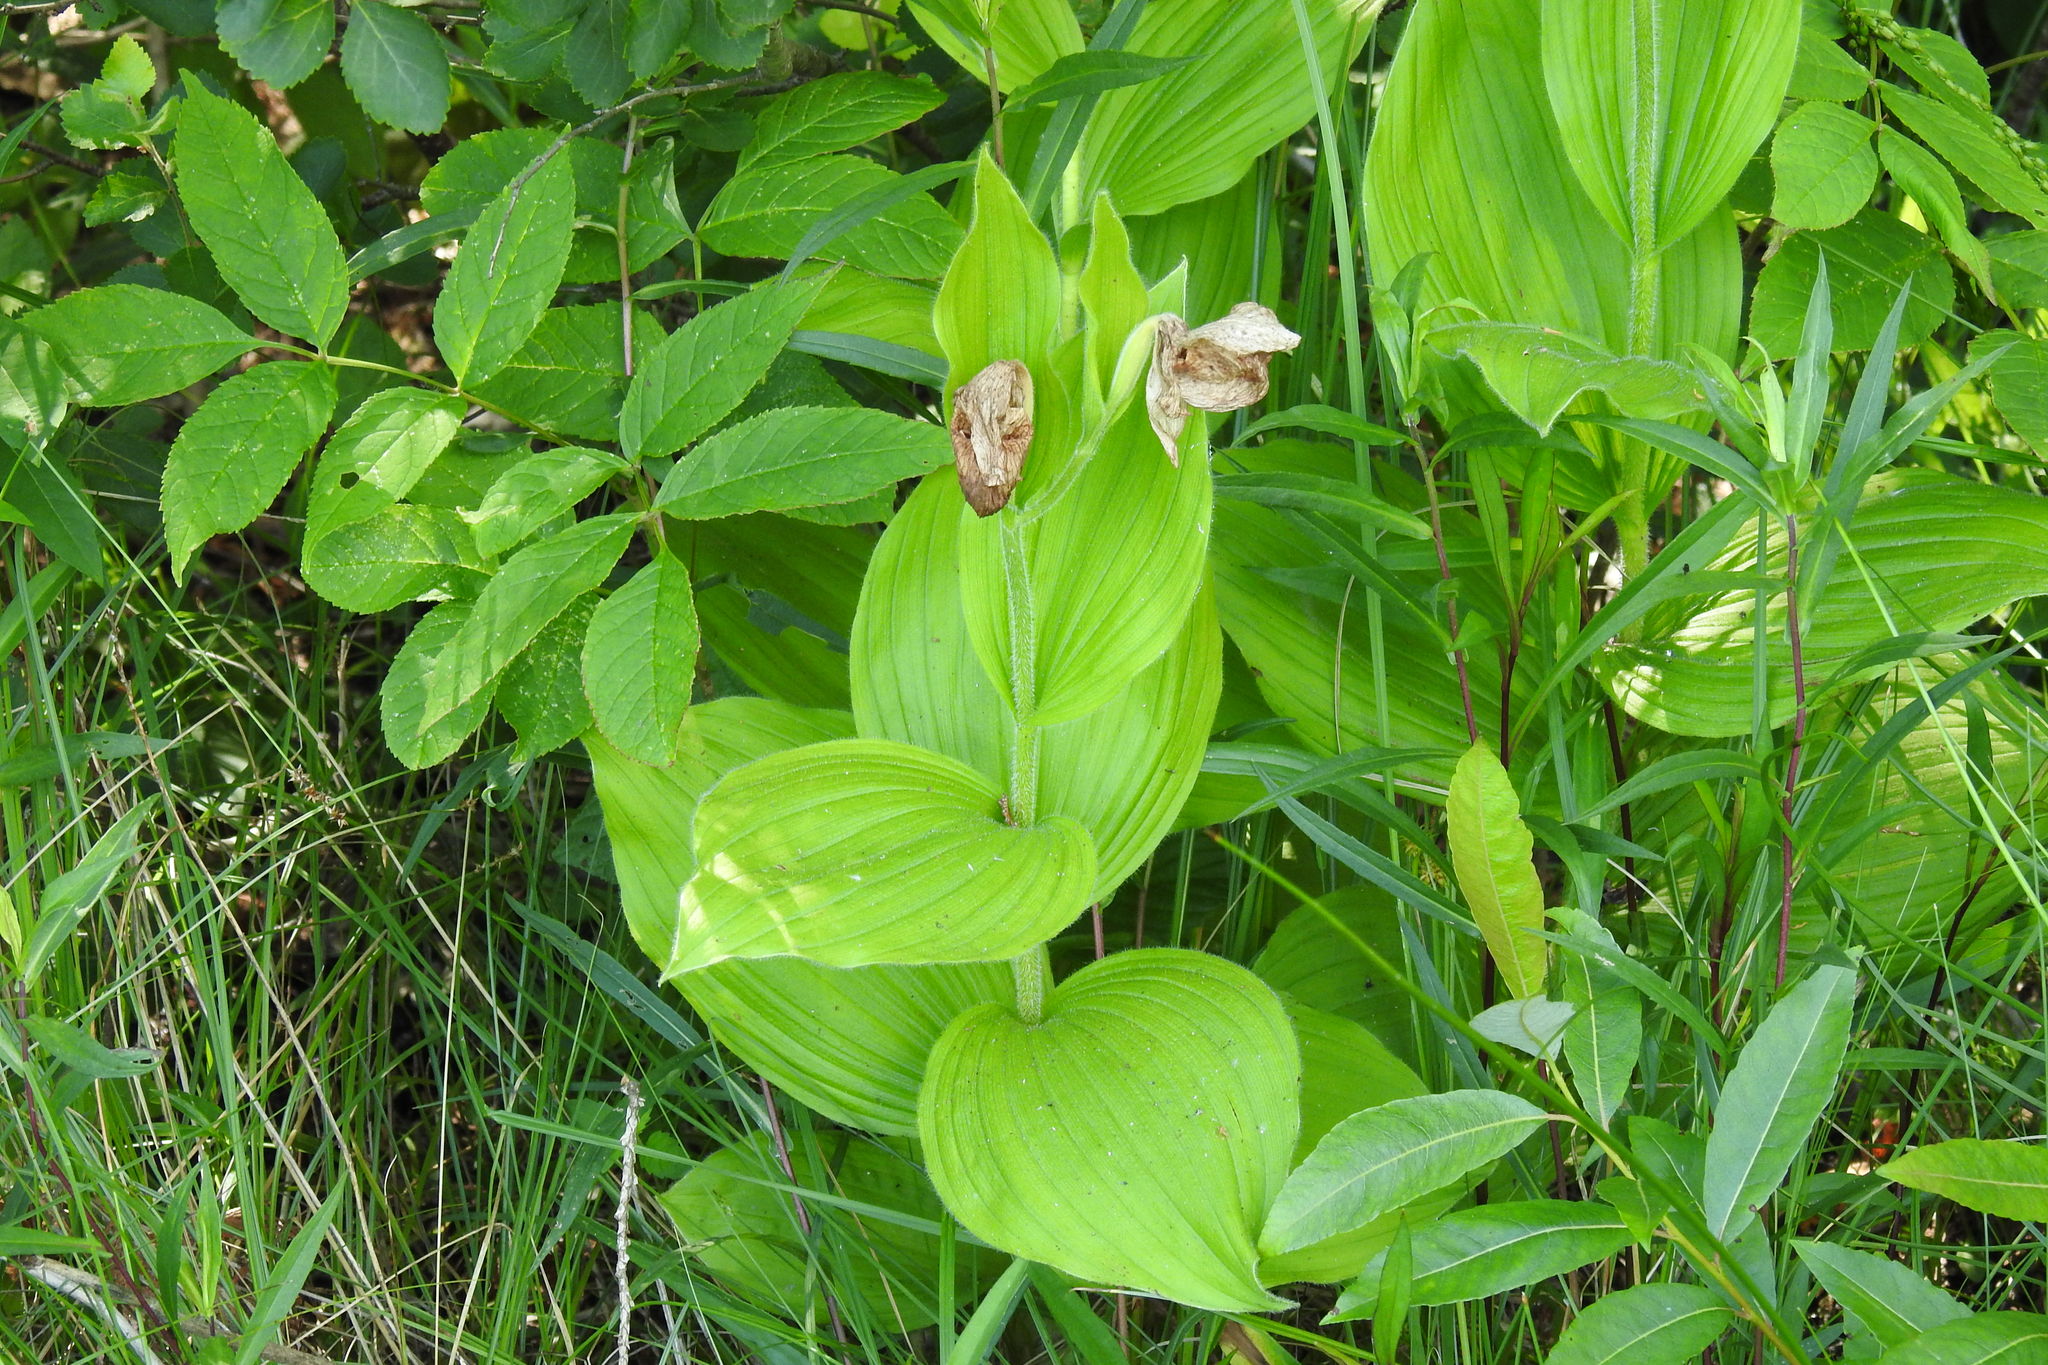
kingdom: Plantae
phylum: Tracheophyta
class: Liliopsida
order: Asparagales
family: Orchidaceae
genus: Cypripedium
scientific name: Cypripedium reginae
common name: Queen lady's-slipper
